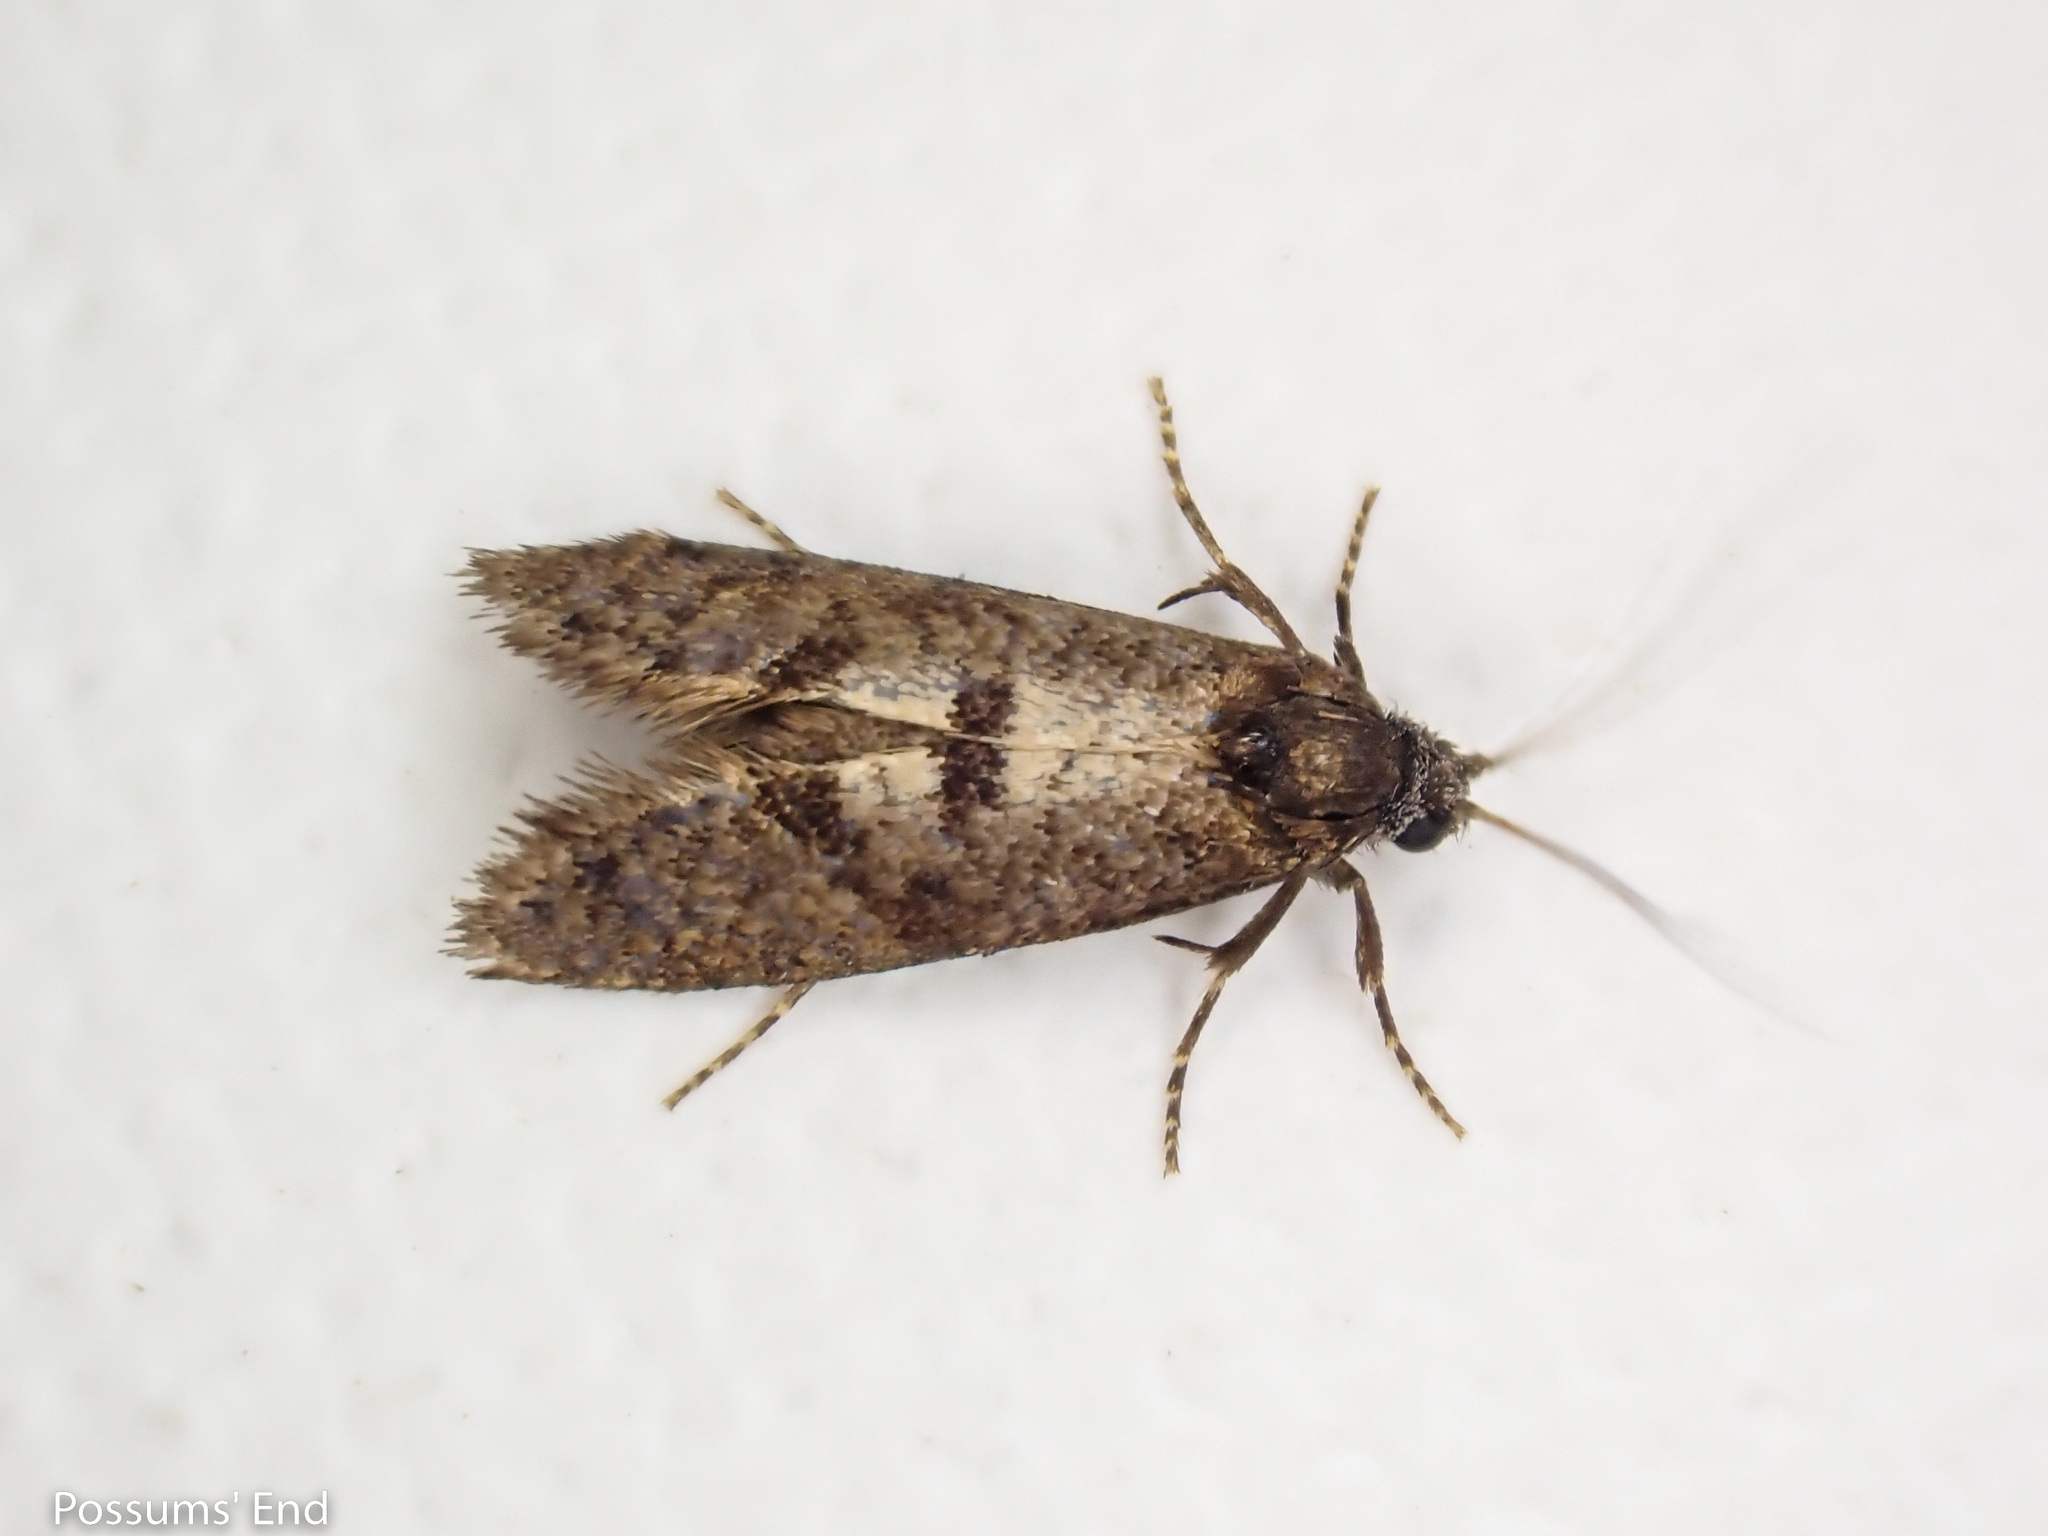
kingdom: Animalia
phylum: Arthropoda
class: Insecta
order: Lepidoptera
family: Psychidae
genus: Mallobathra
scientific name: Mallobathra perisseuta
